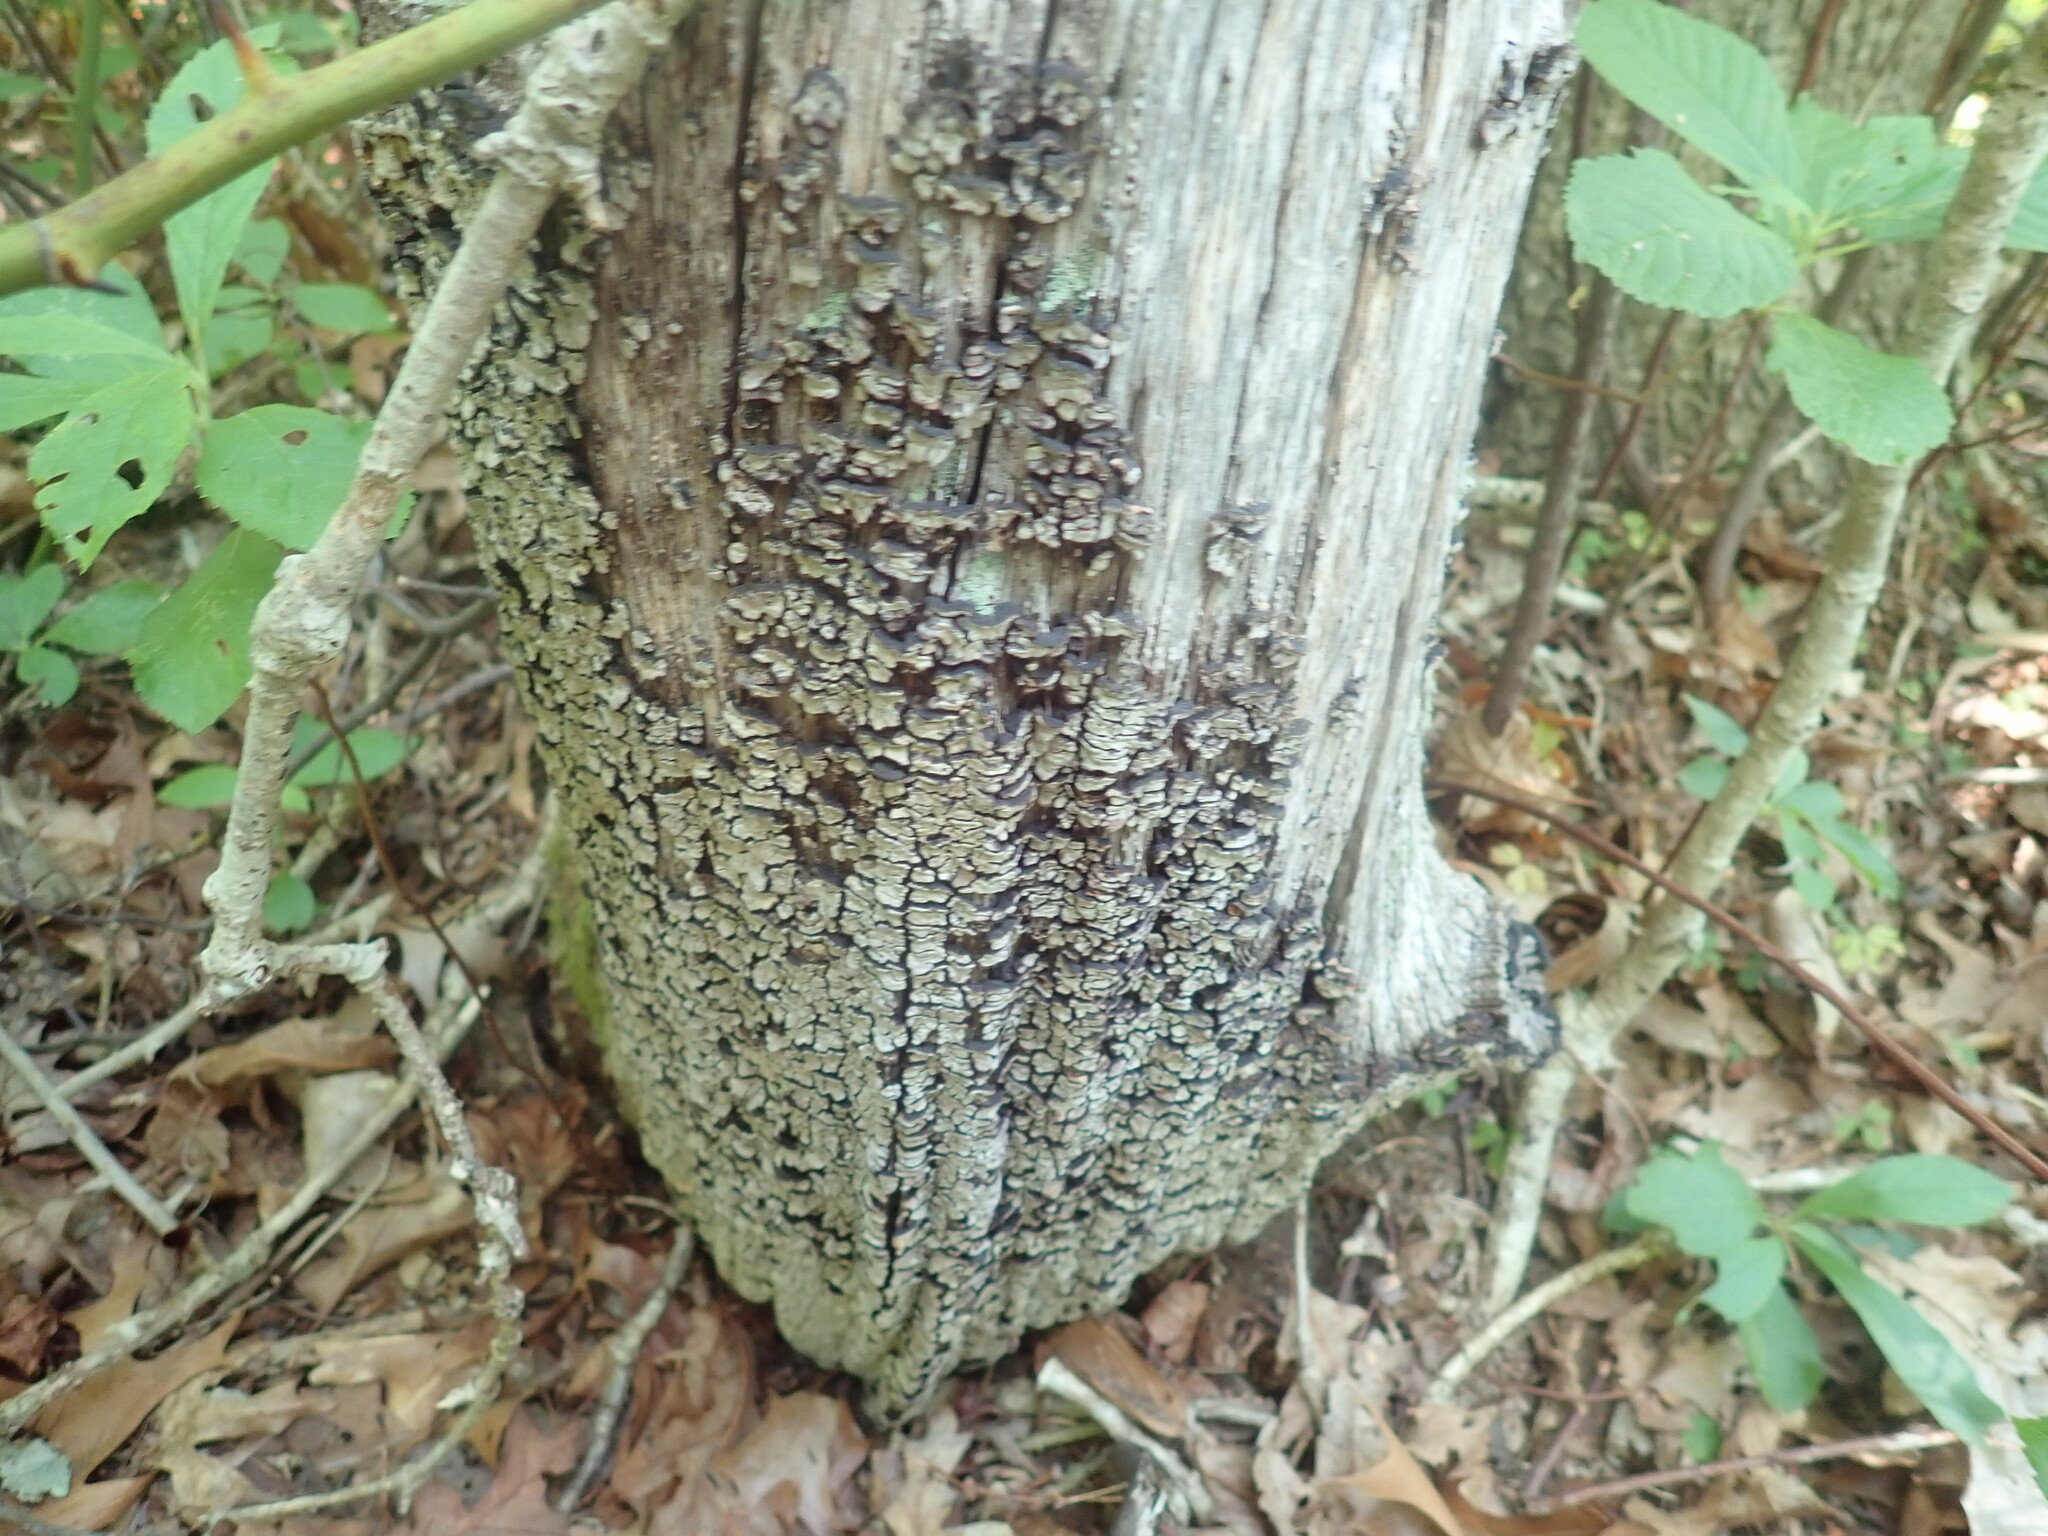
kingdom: Fungi
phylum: Basidiomycota
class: Agaricomycetes
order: Russulales
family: Stereaceae
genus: Xylobolus
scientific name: Xylobolus frustulatus
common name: Ceramic parchment
